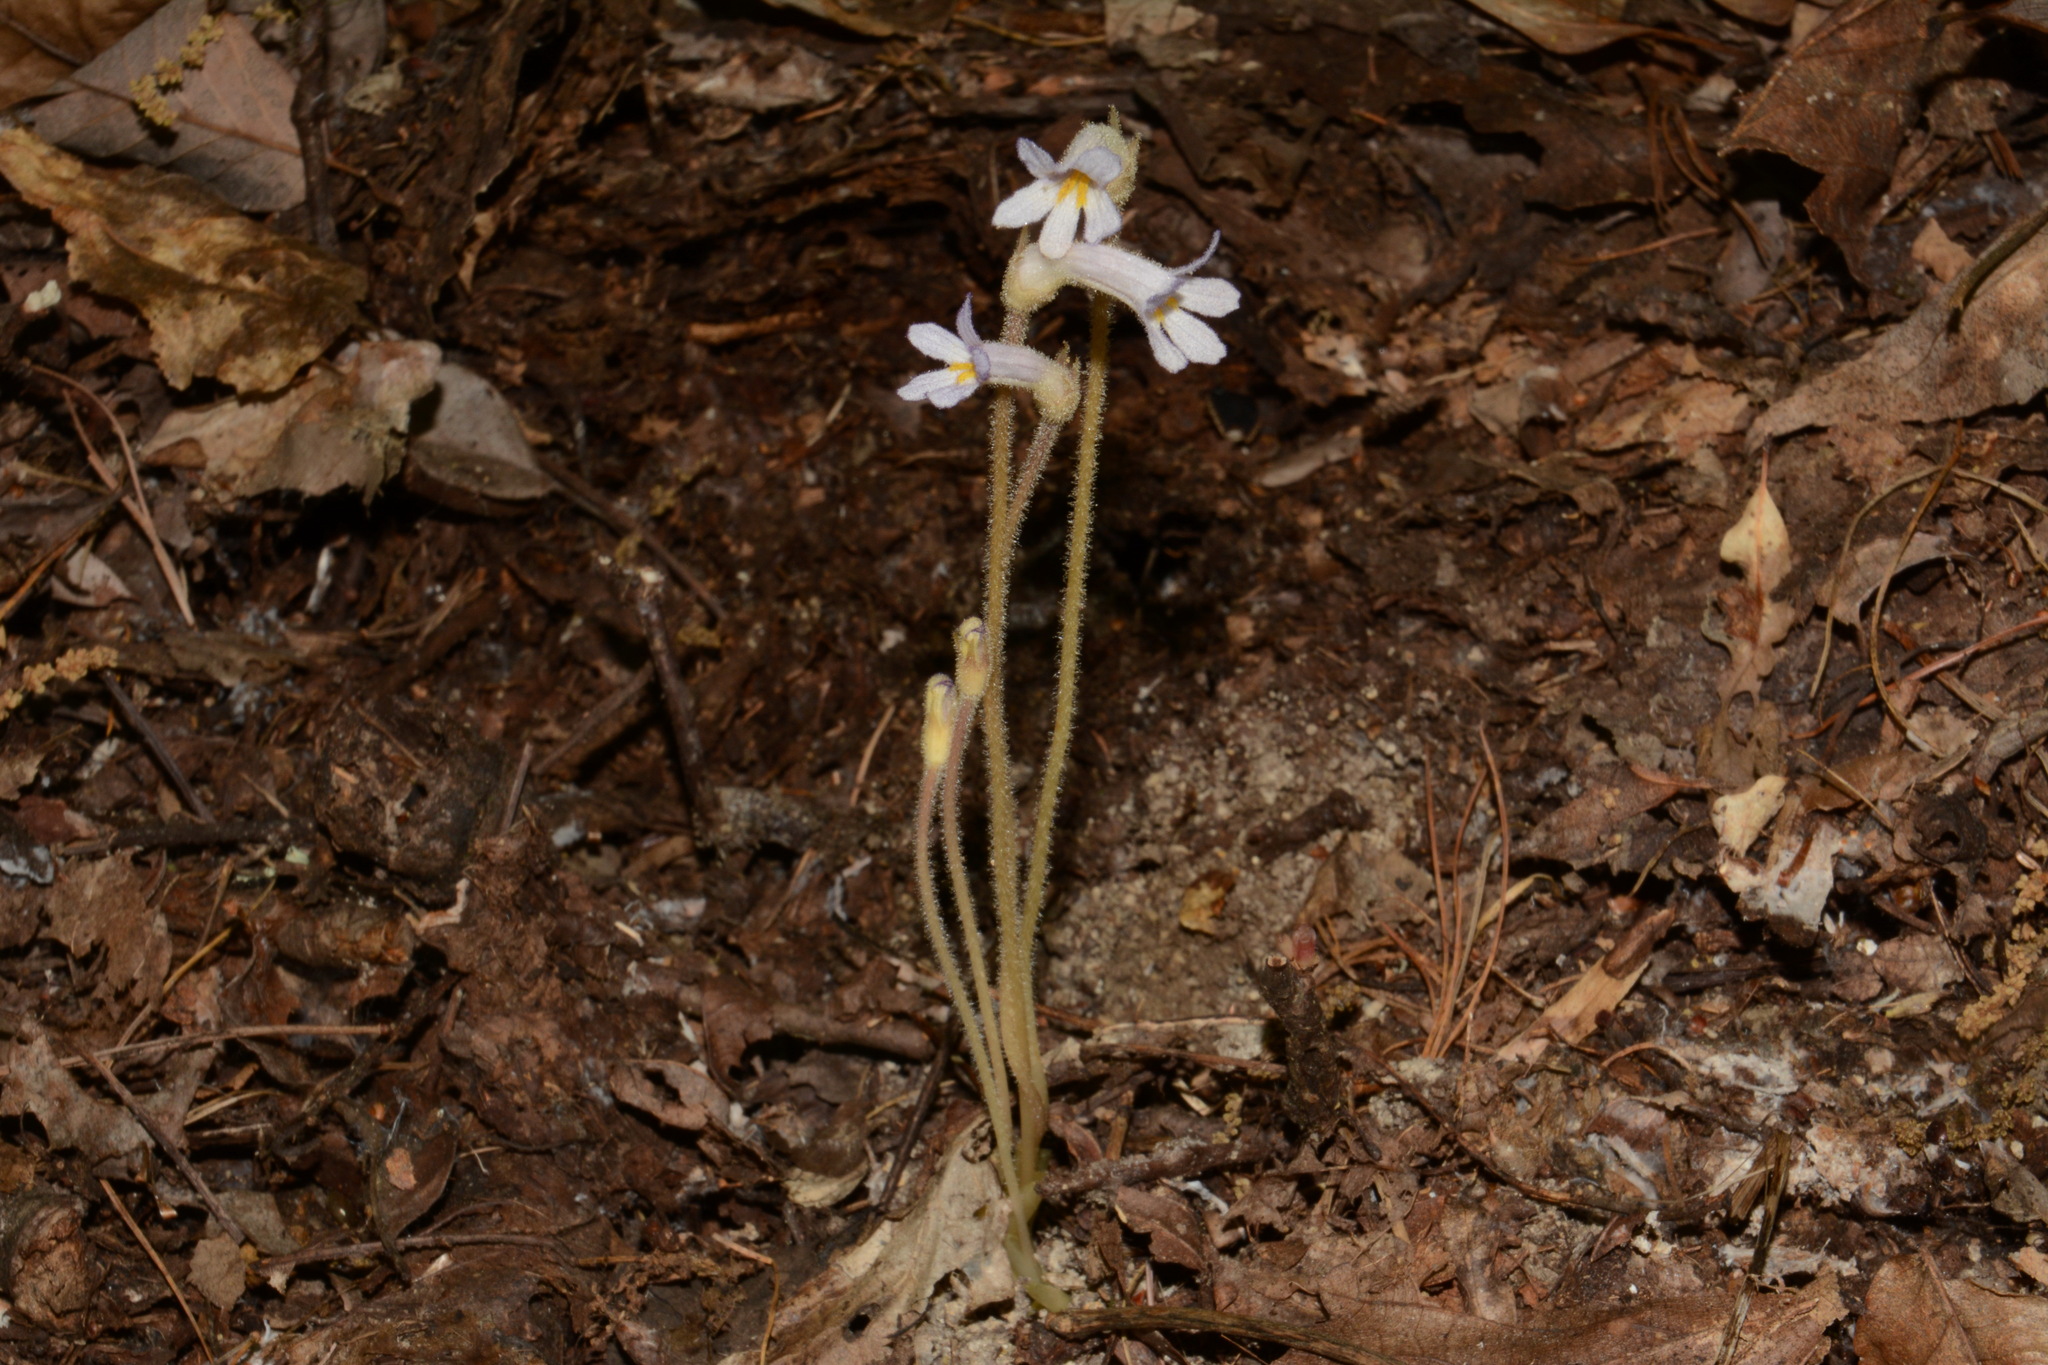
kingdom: Plantae
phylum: Tracheophyta
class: Magnoliopsida
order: Lamiales
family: Orobanchaceae
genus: Aphyllon
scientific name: Aphyllon uniflorum
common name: One-flowered broomrape
